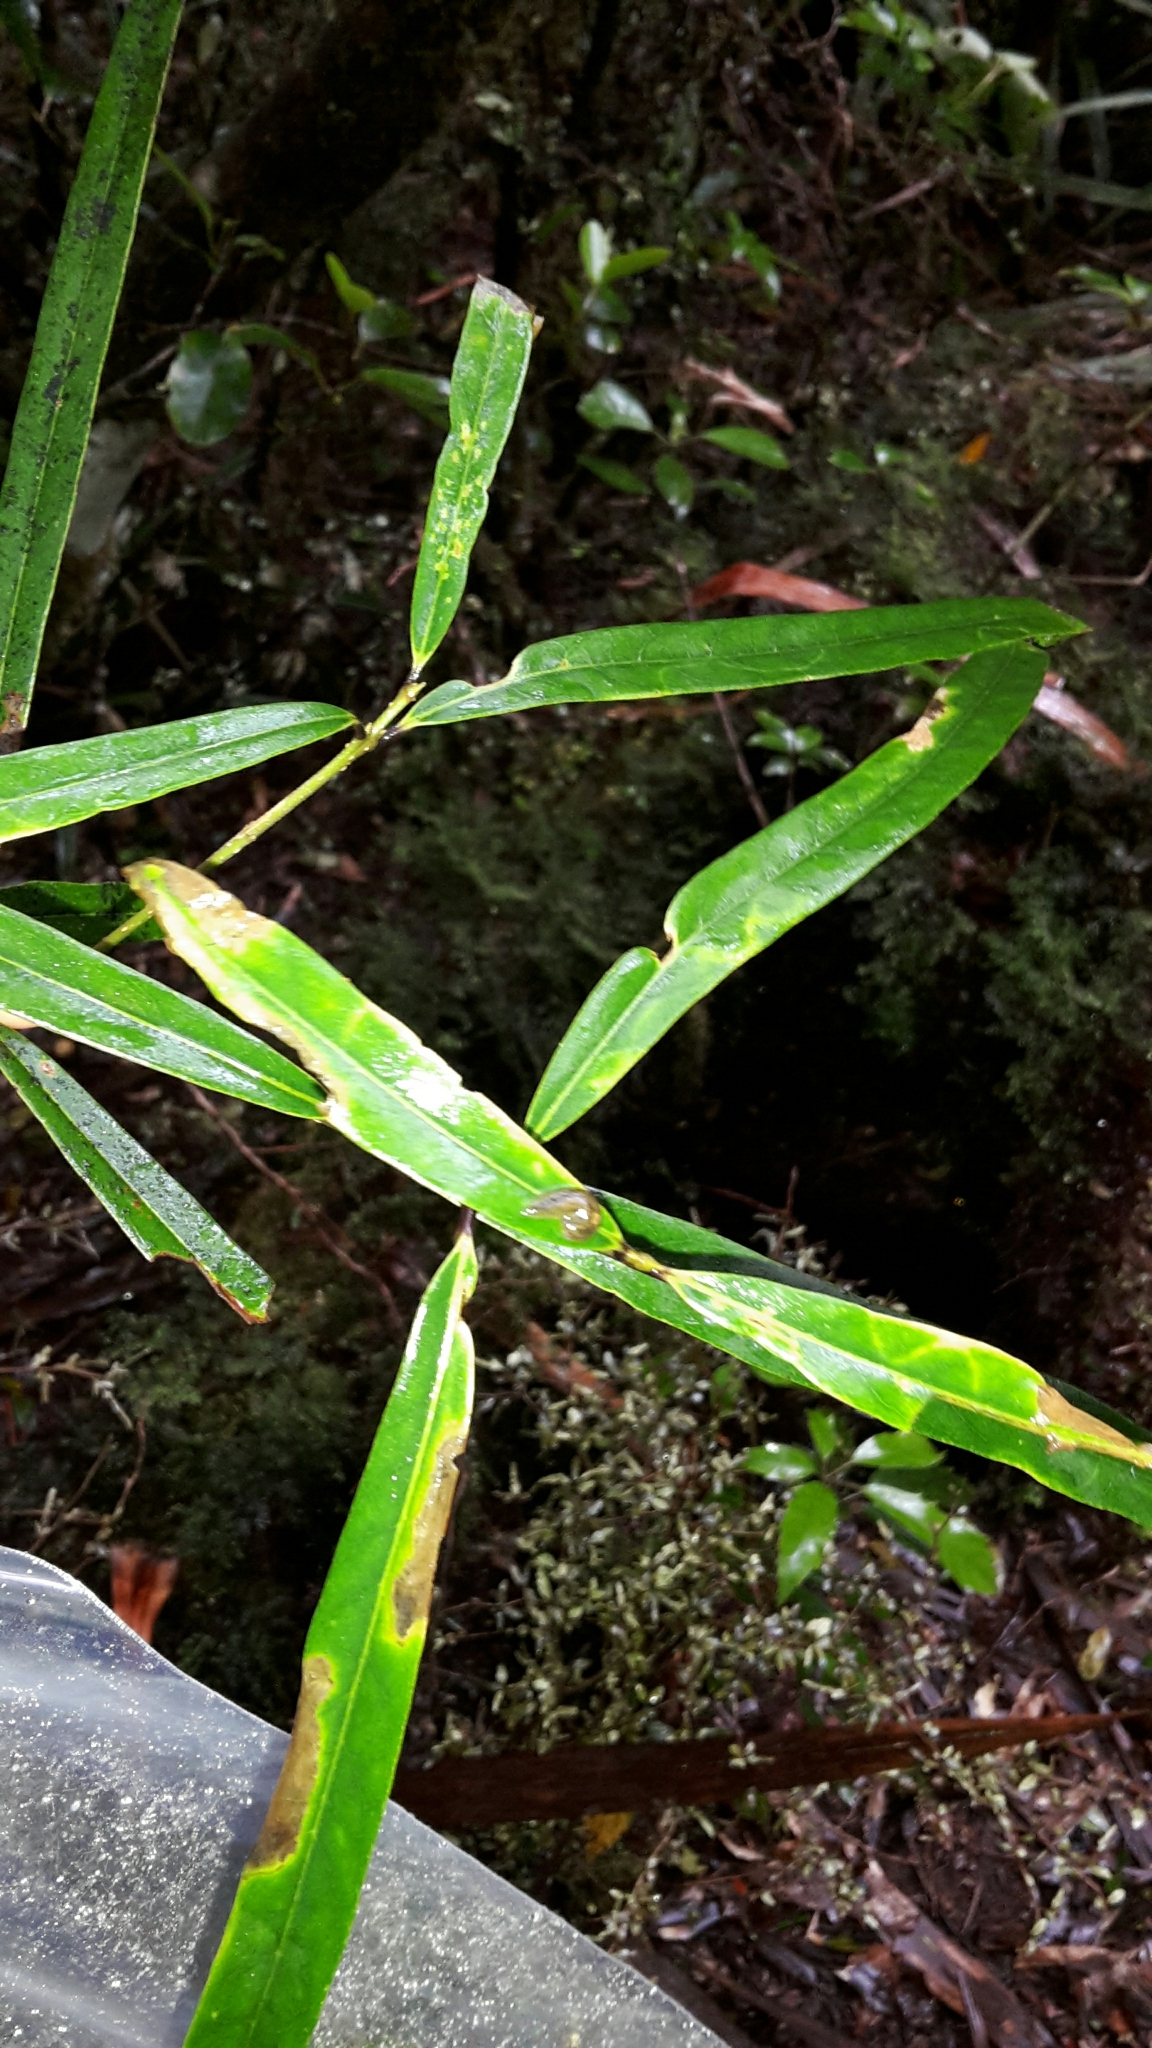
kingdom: Plantae
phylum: Tracheophyta
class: Magnoliopsida
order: Lamiales
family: Oleaceae
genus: Nestegis
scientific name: Nestegis cunninghamii
